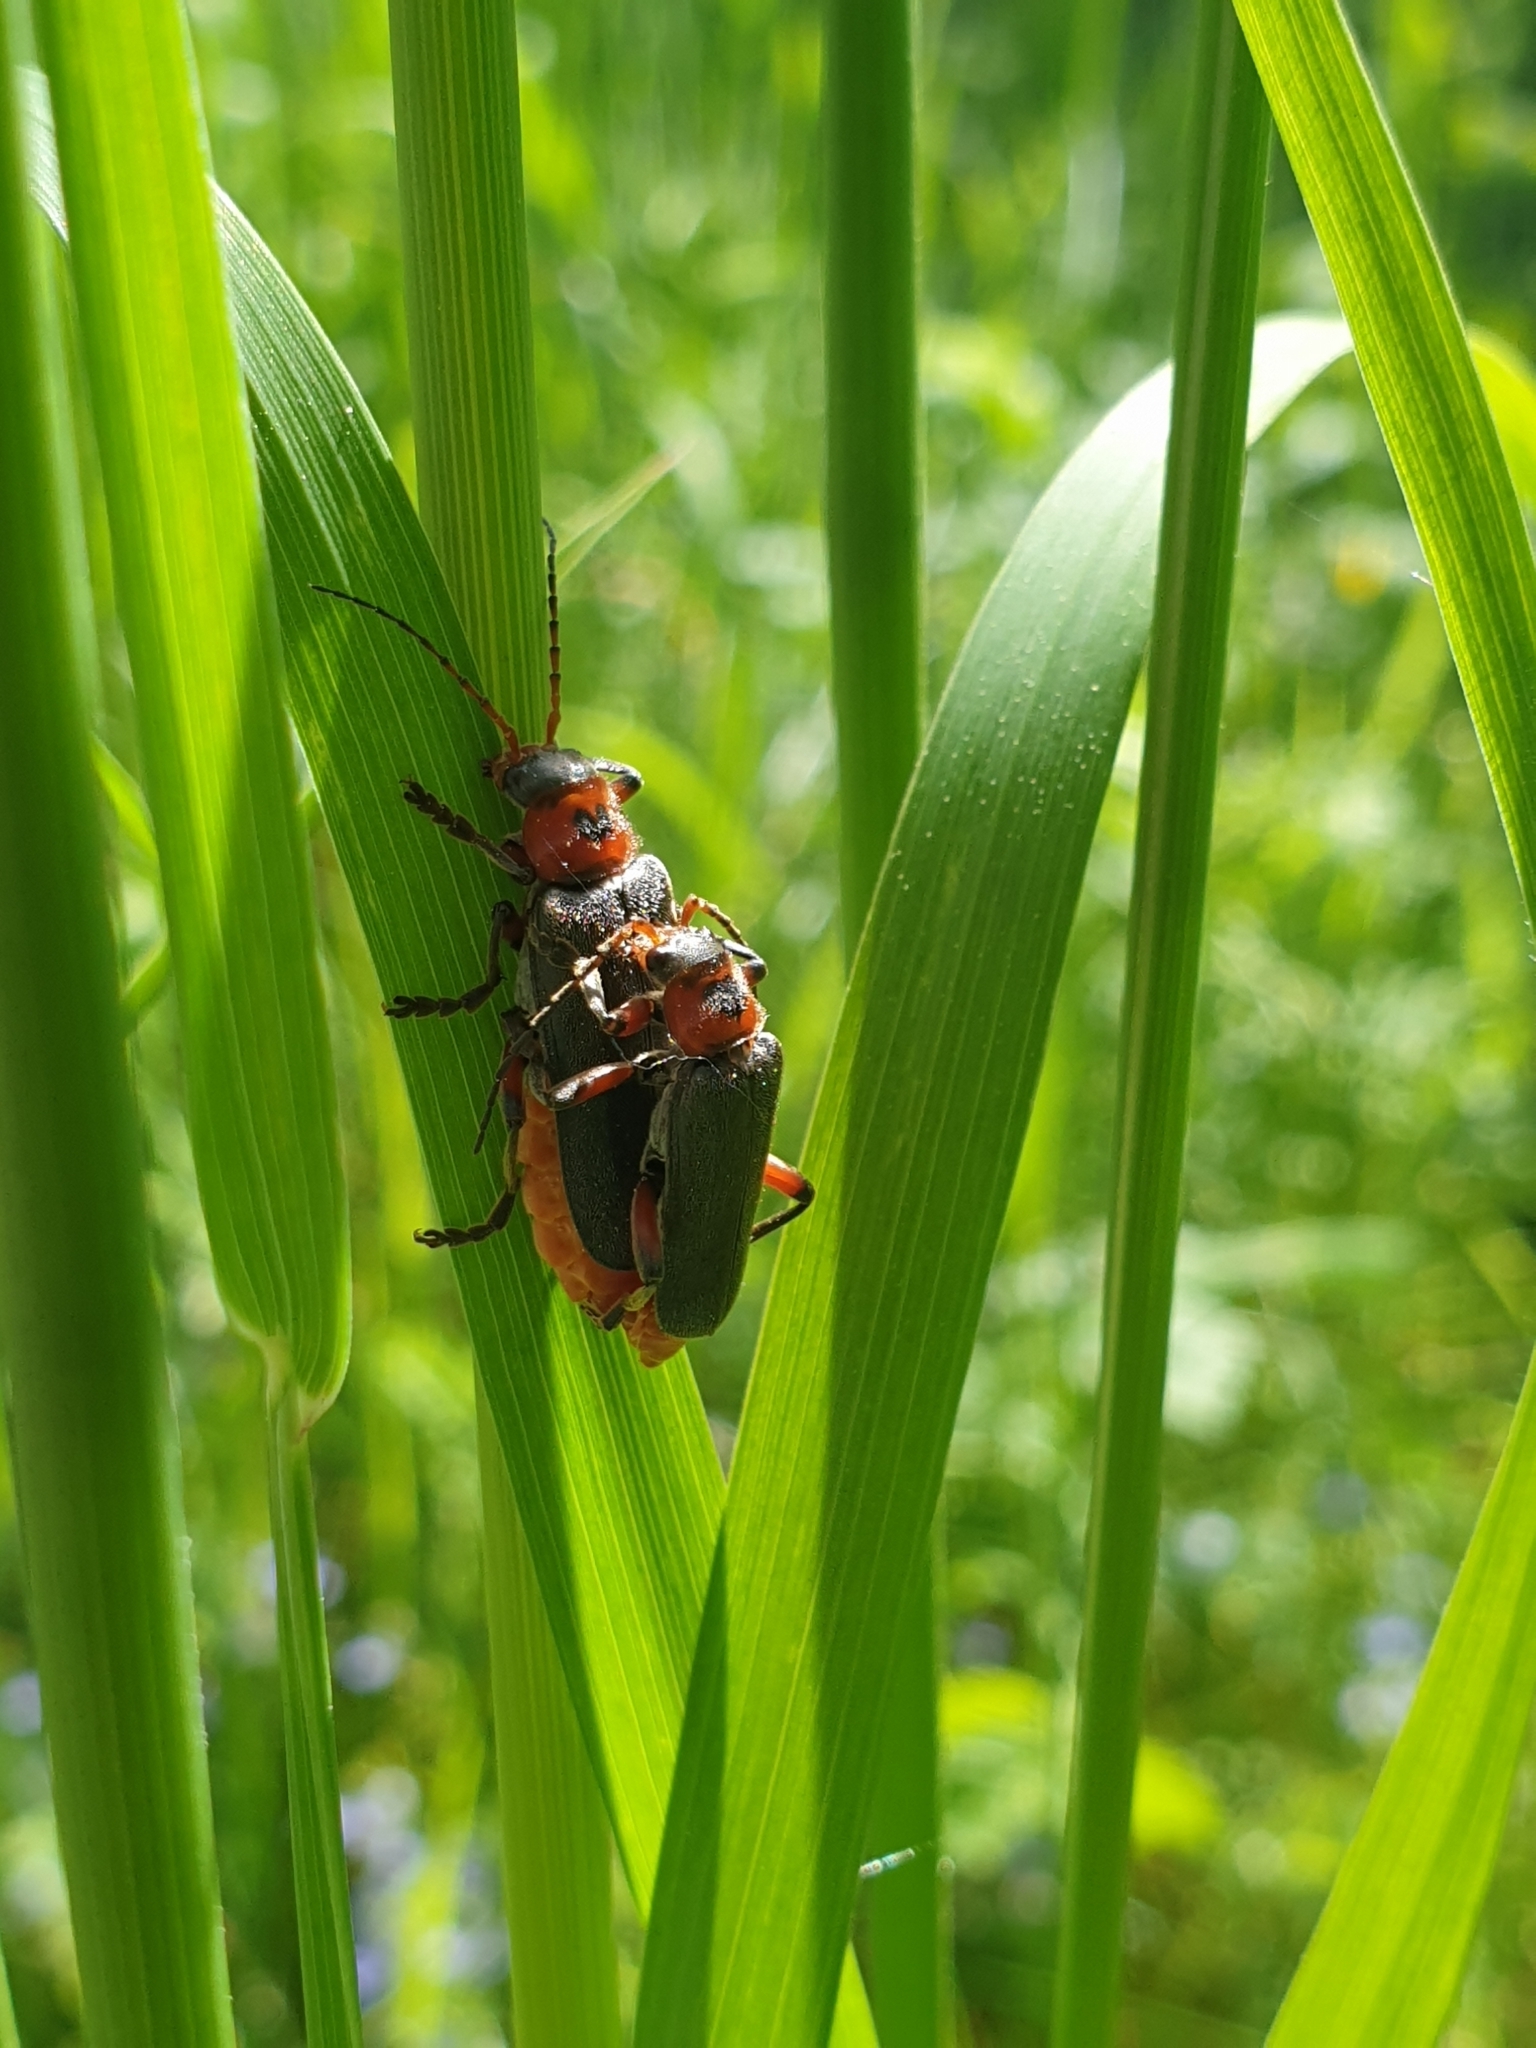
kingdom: Animalia
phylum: Arthropoda
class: Insecta
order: Coleoptera
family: Cantharidae
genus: Cantharis
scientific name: Cantharis rustica
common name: Soldier beetle
